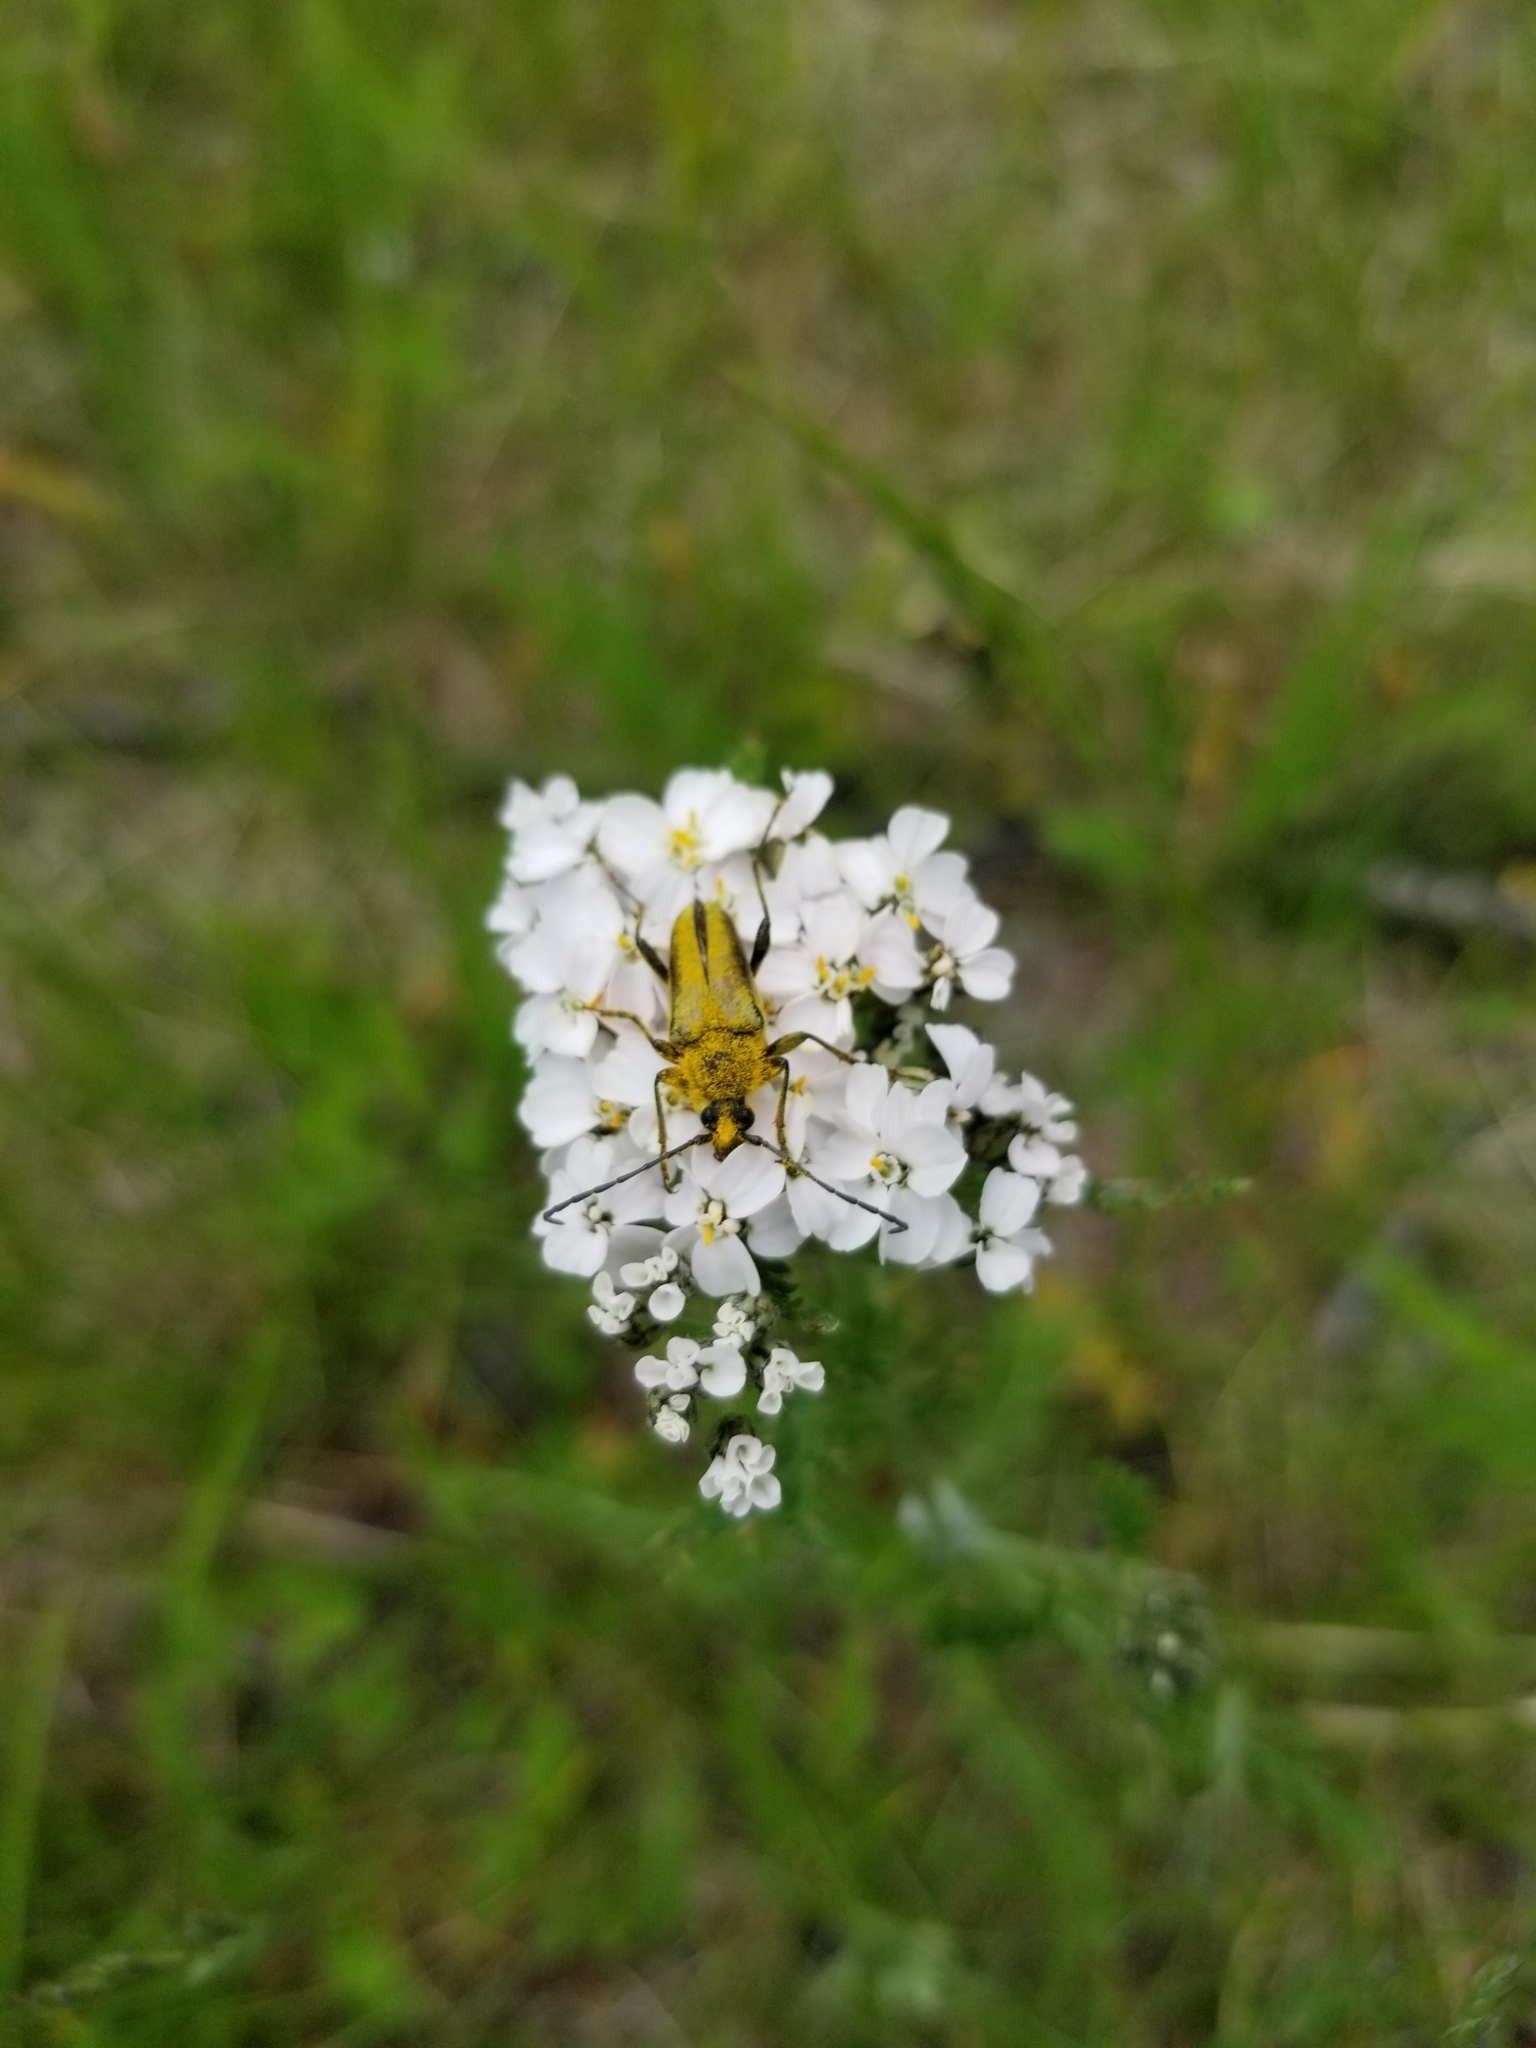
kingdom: Animalia
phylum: Arthropoda
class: Insecta
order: Coleoptera
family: Cerambycidae
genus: Cosmosalia
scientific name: Cosmosalia chrysocoma
